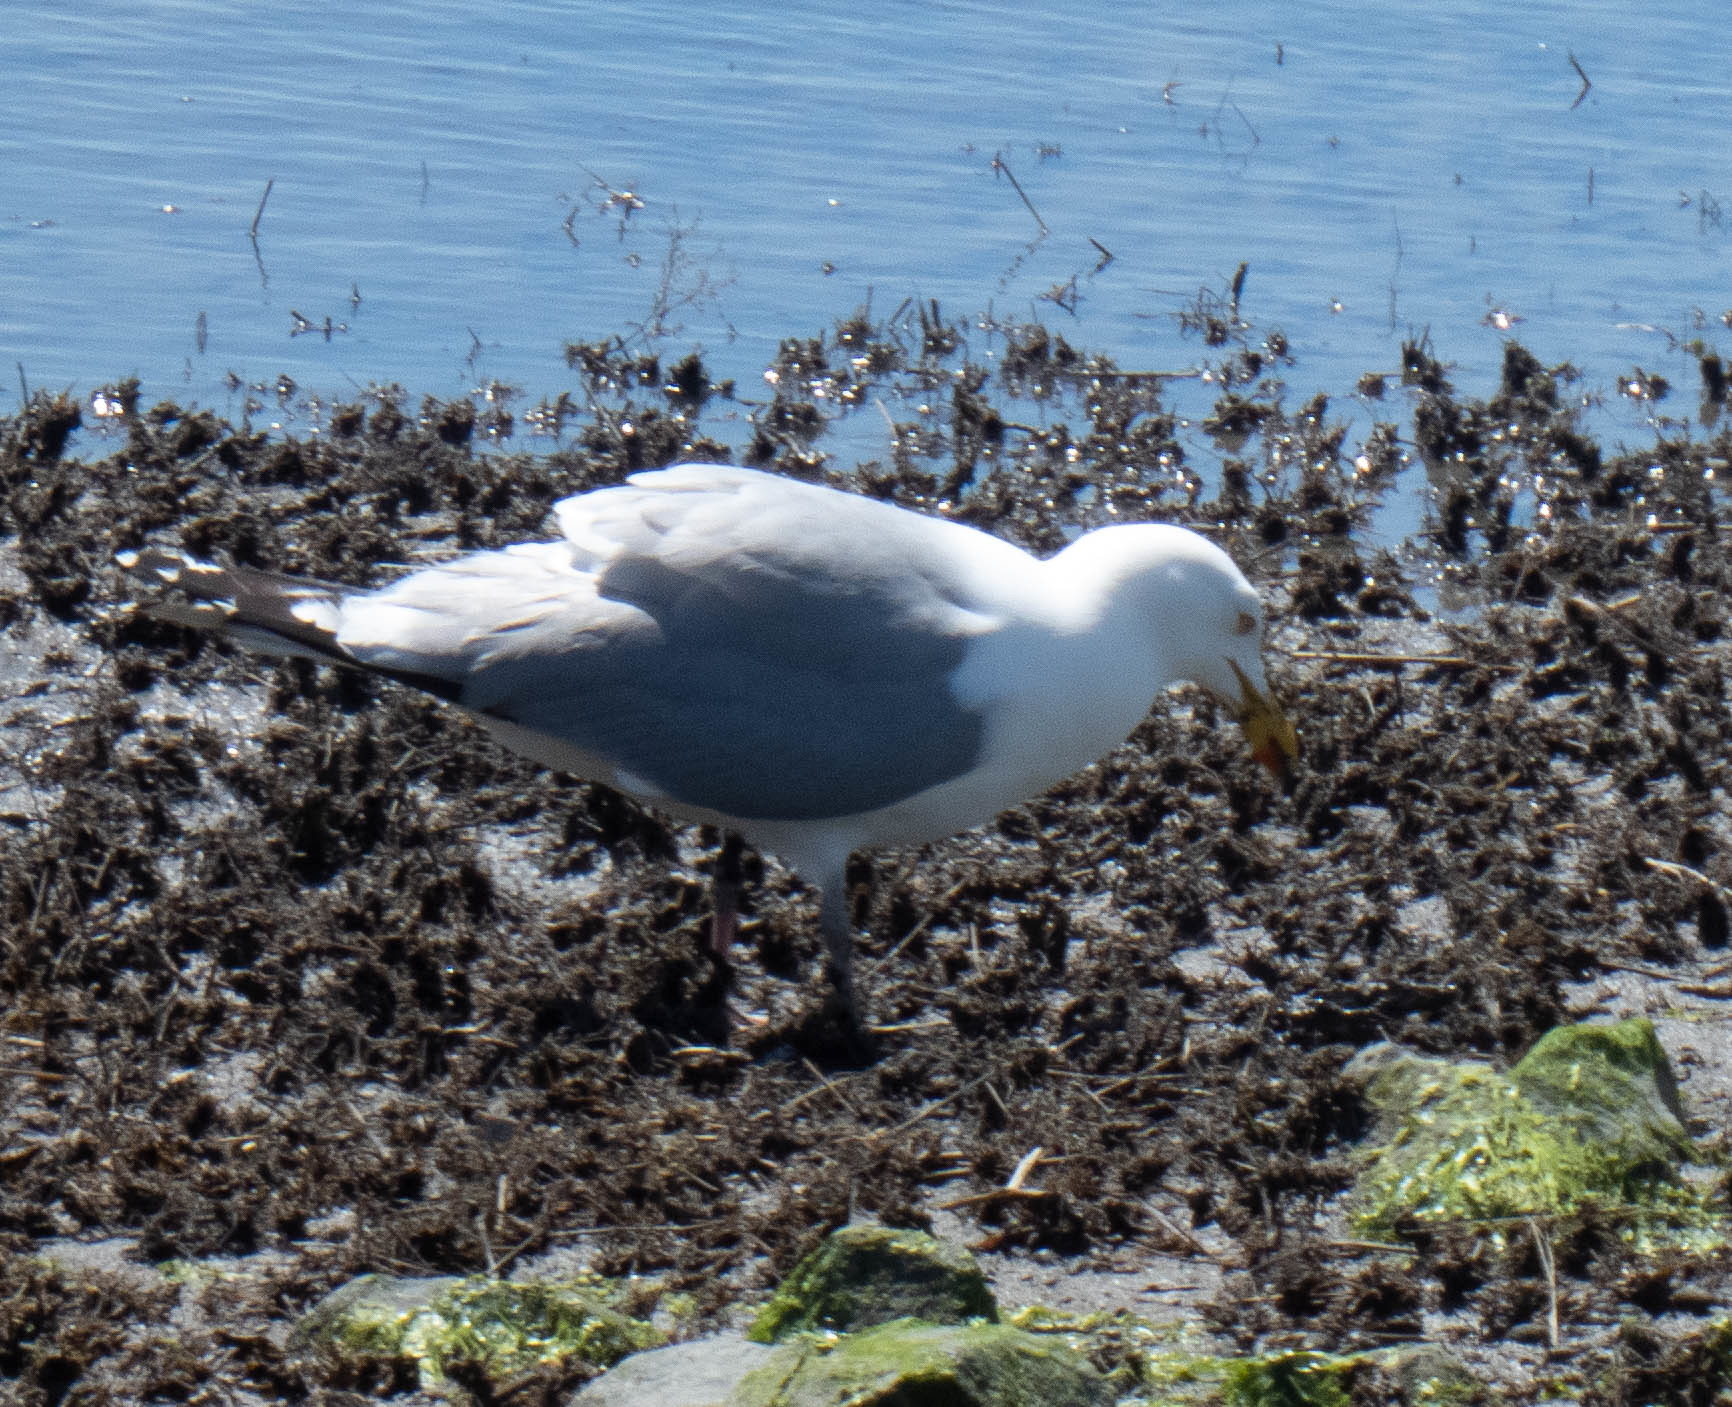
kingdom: Animalia
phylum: Chordata
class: Aves
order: Charadriiformes
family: Laridae
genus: Larus
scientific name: Larus argentatus
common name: Herring gull
